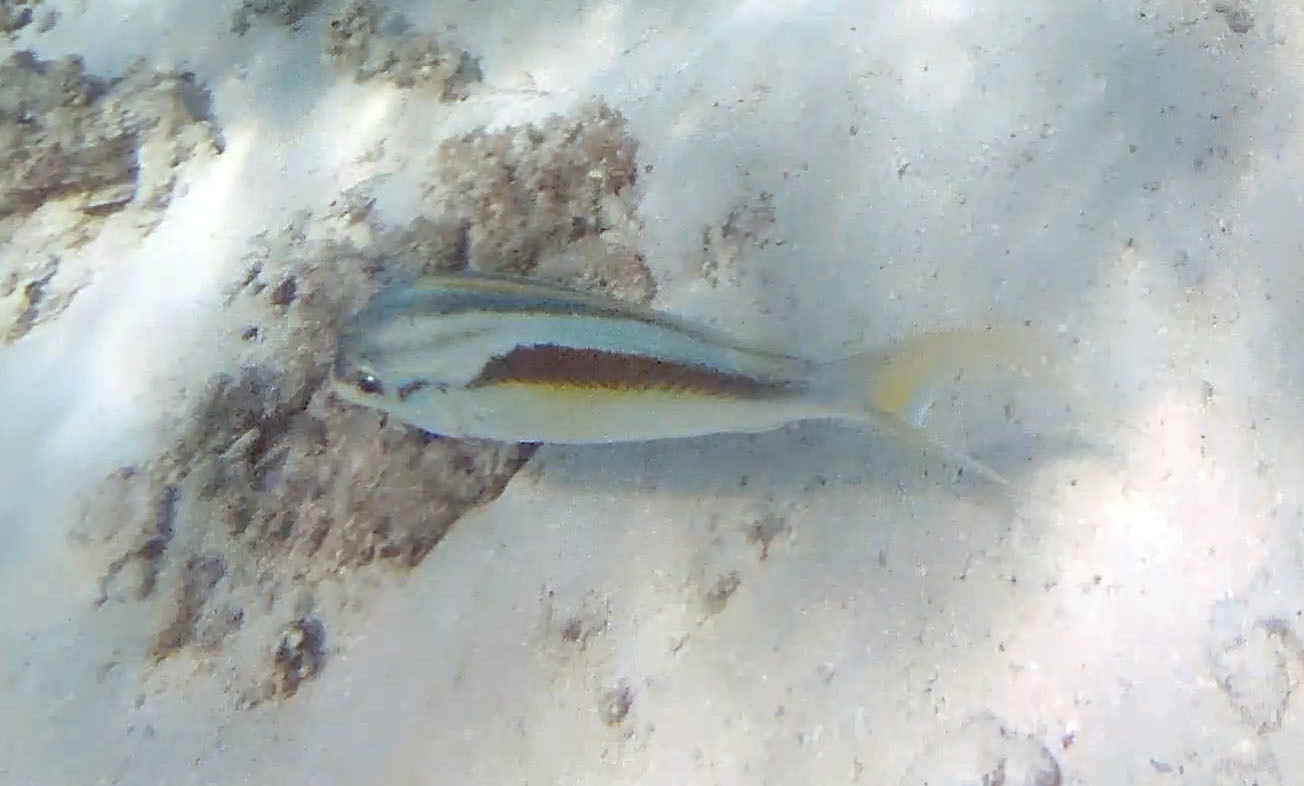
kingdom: Animalia
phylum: Chordata
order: Perciformes
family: Nemipteridae
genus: Scolopsis
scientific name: Scolopsis monogramma
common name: Monogrammed monocle bream
